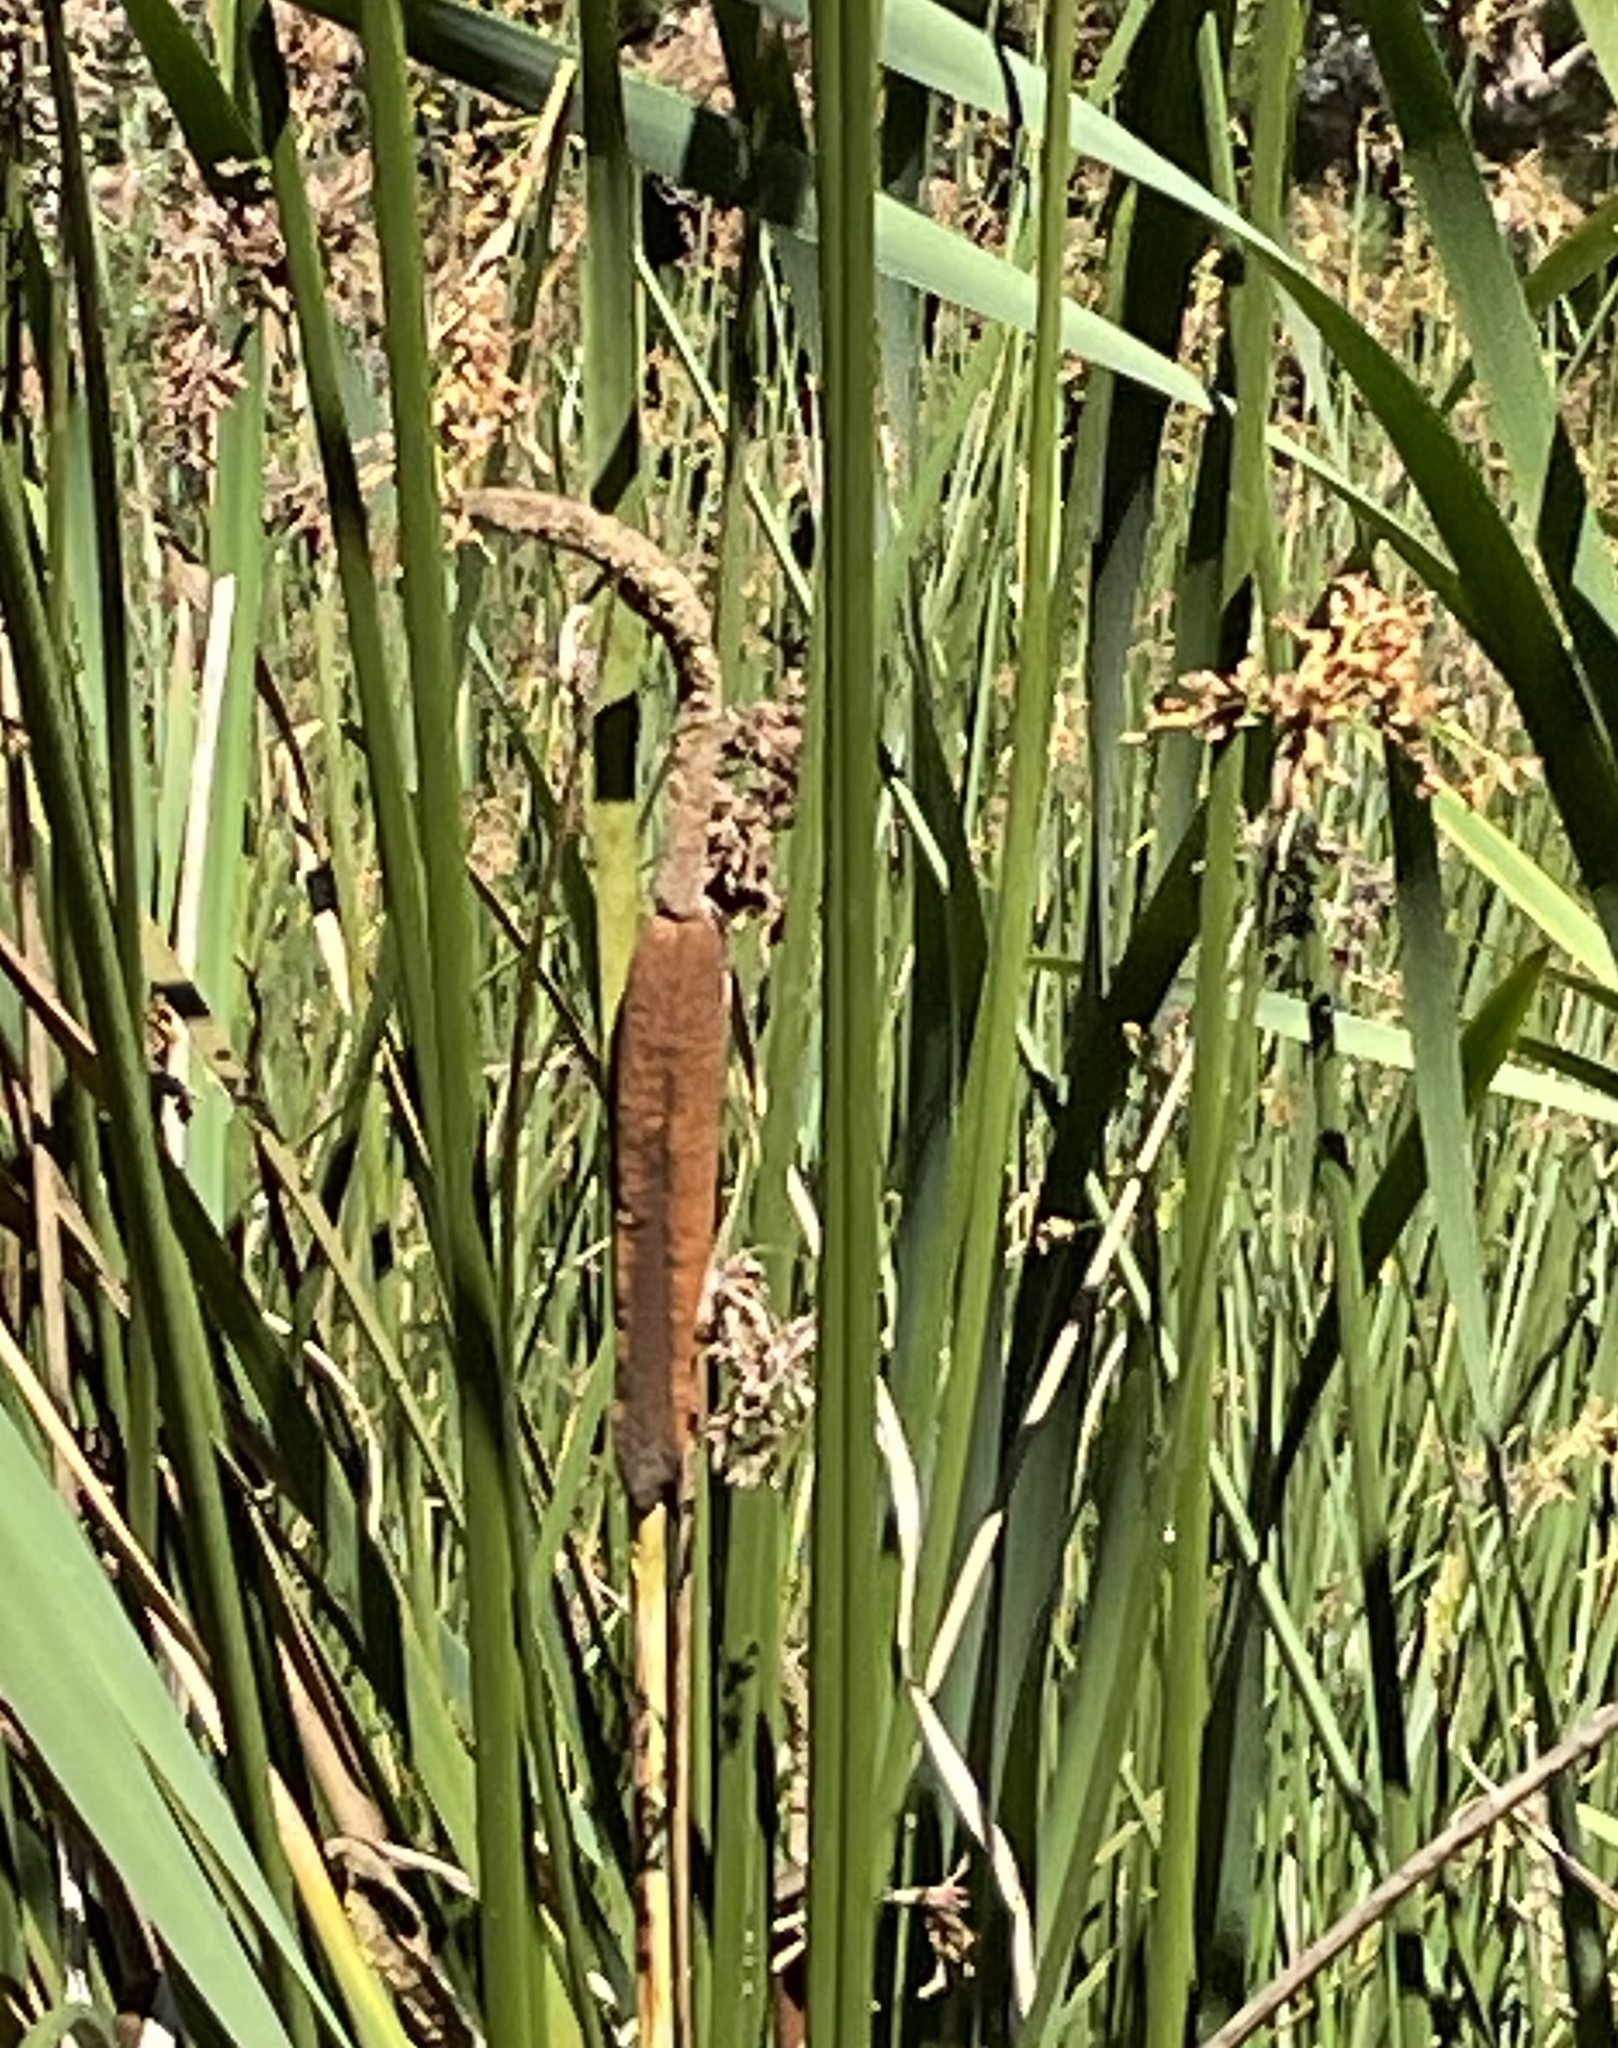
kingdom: Plantae
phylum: Tracheophyta
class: Liliopsida
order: Poales
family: Typhaceae
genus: Typha
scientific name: Typha latifolia
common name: Broadleaf cattail
